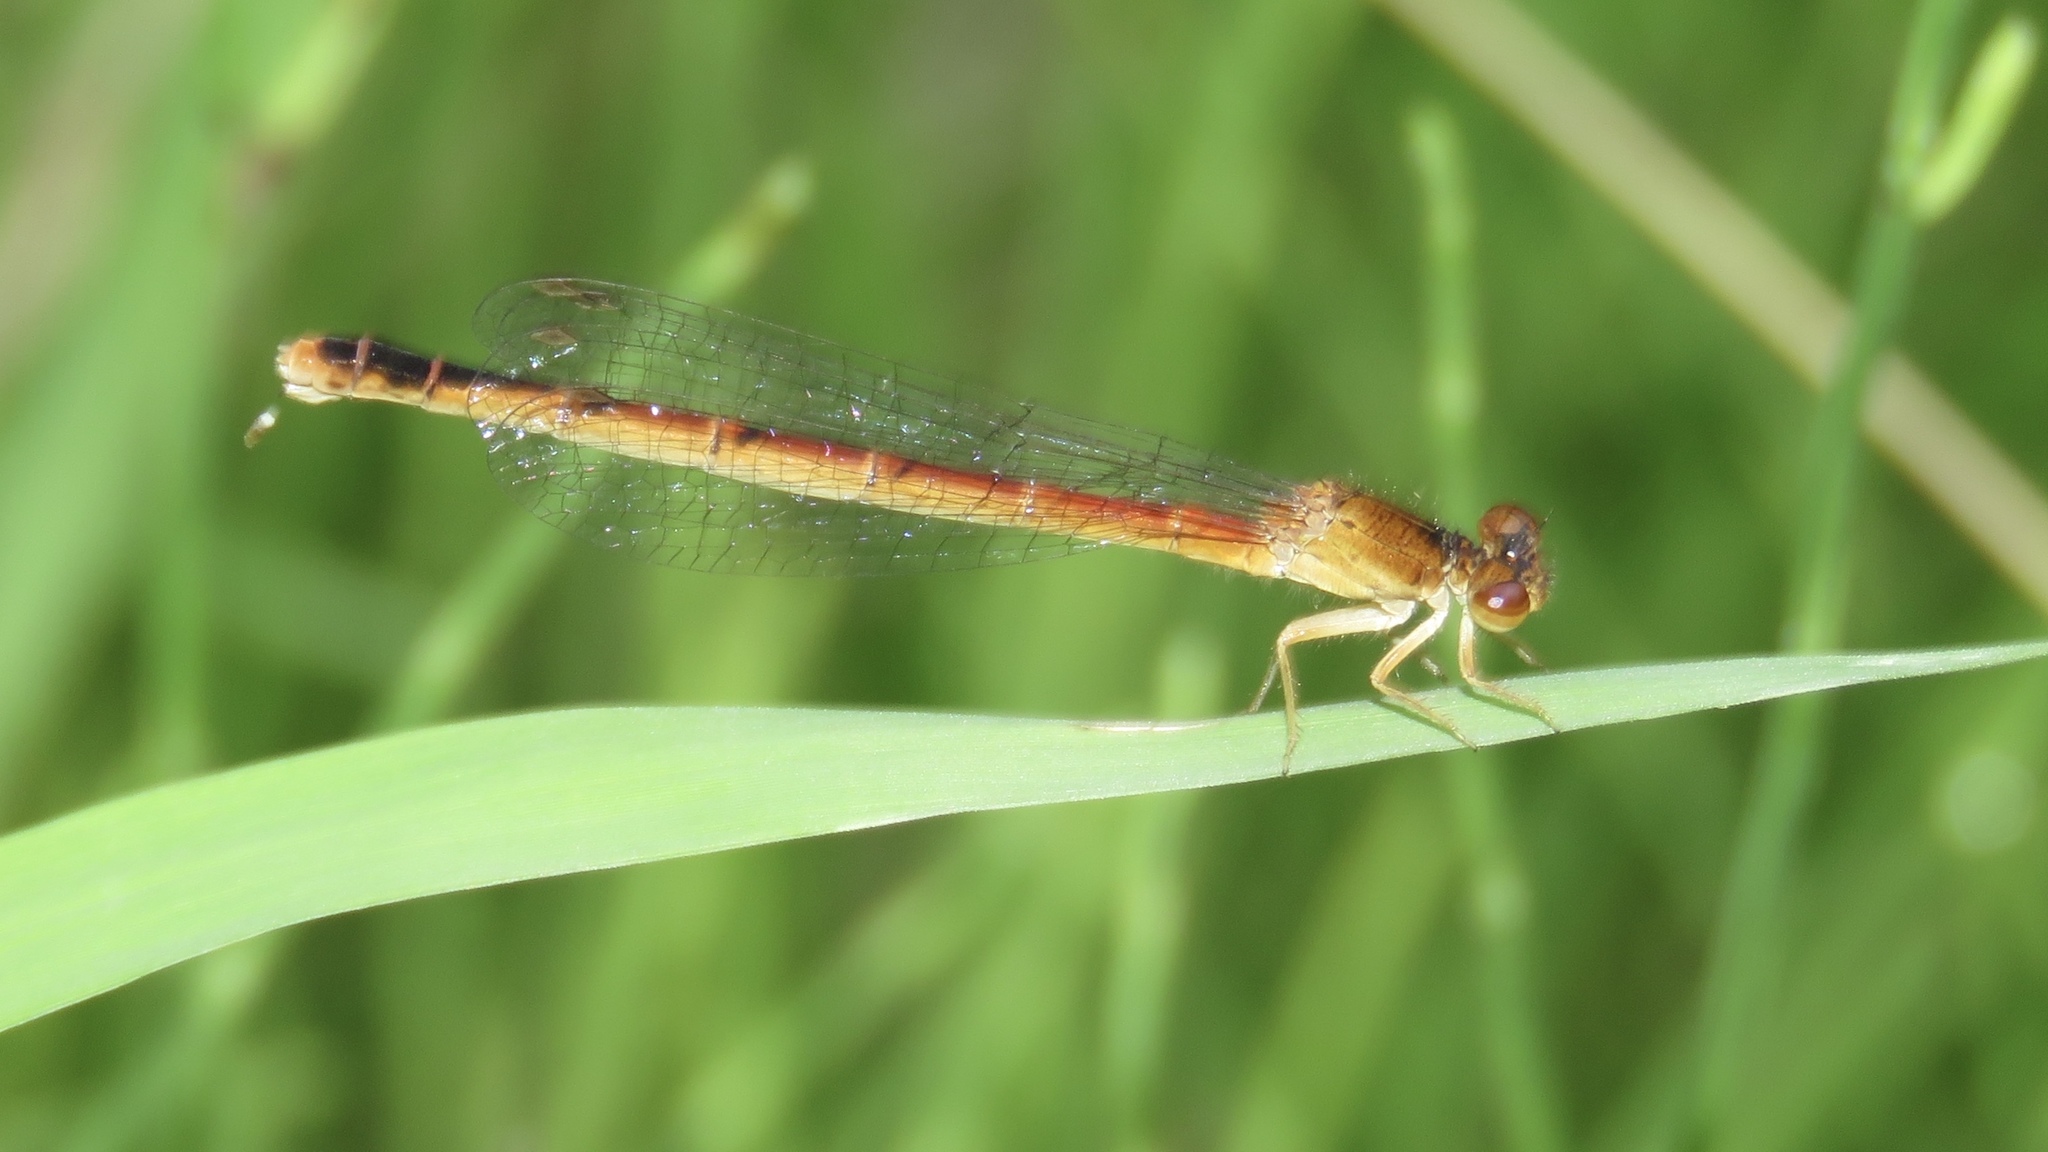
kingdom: Animalia
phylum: Arthropoda
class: Insecta
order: Odonata
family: Coenagrionidae
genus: Amphiagrion
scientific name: Amphiagrion saucium
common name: Eastern red damsel
